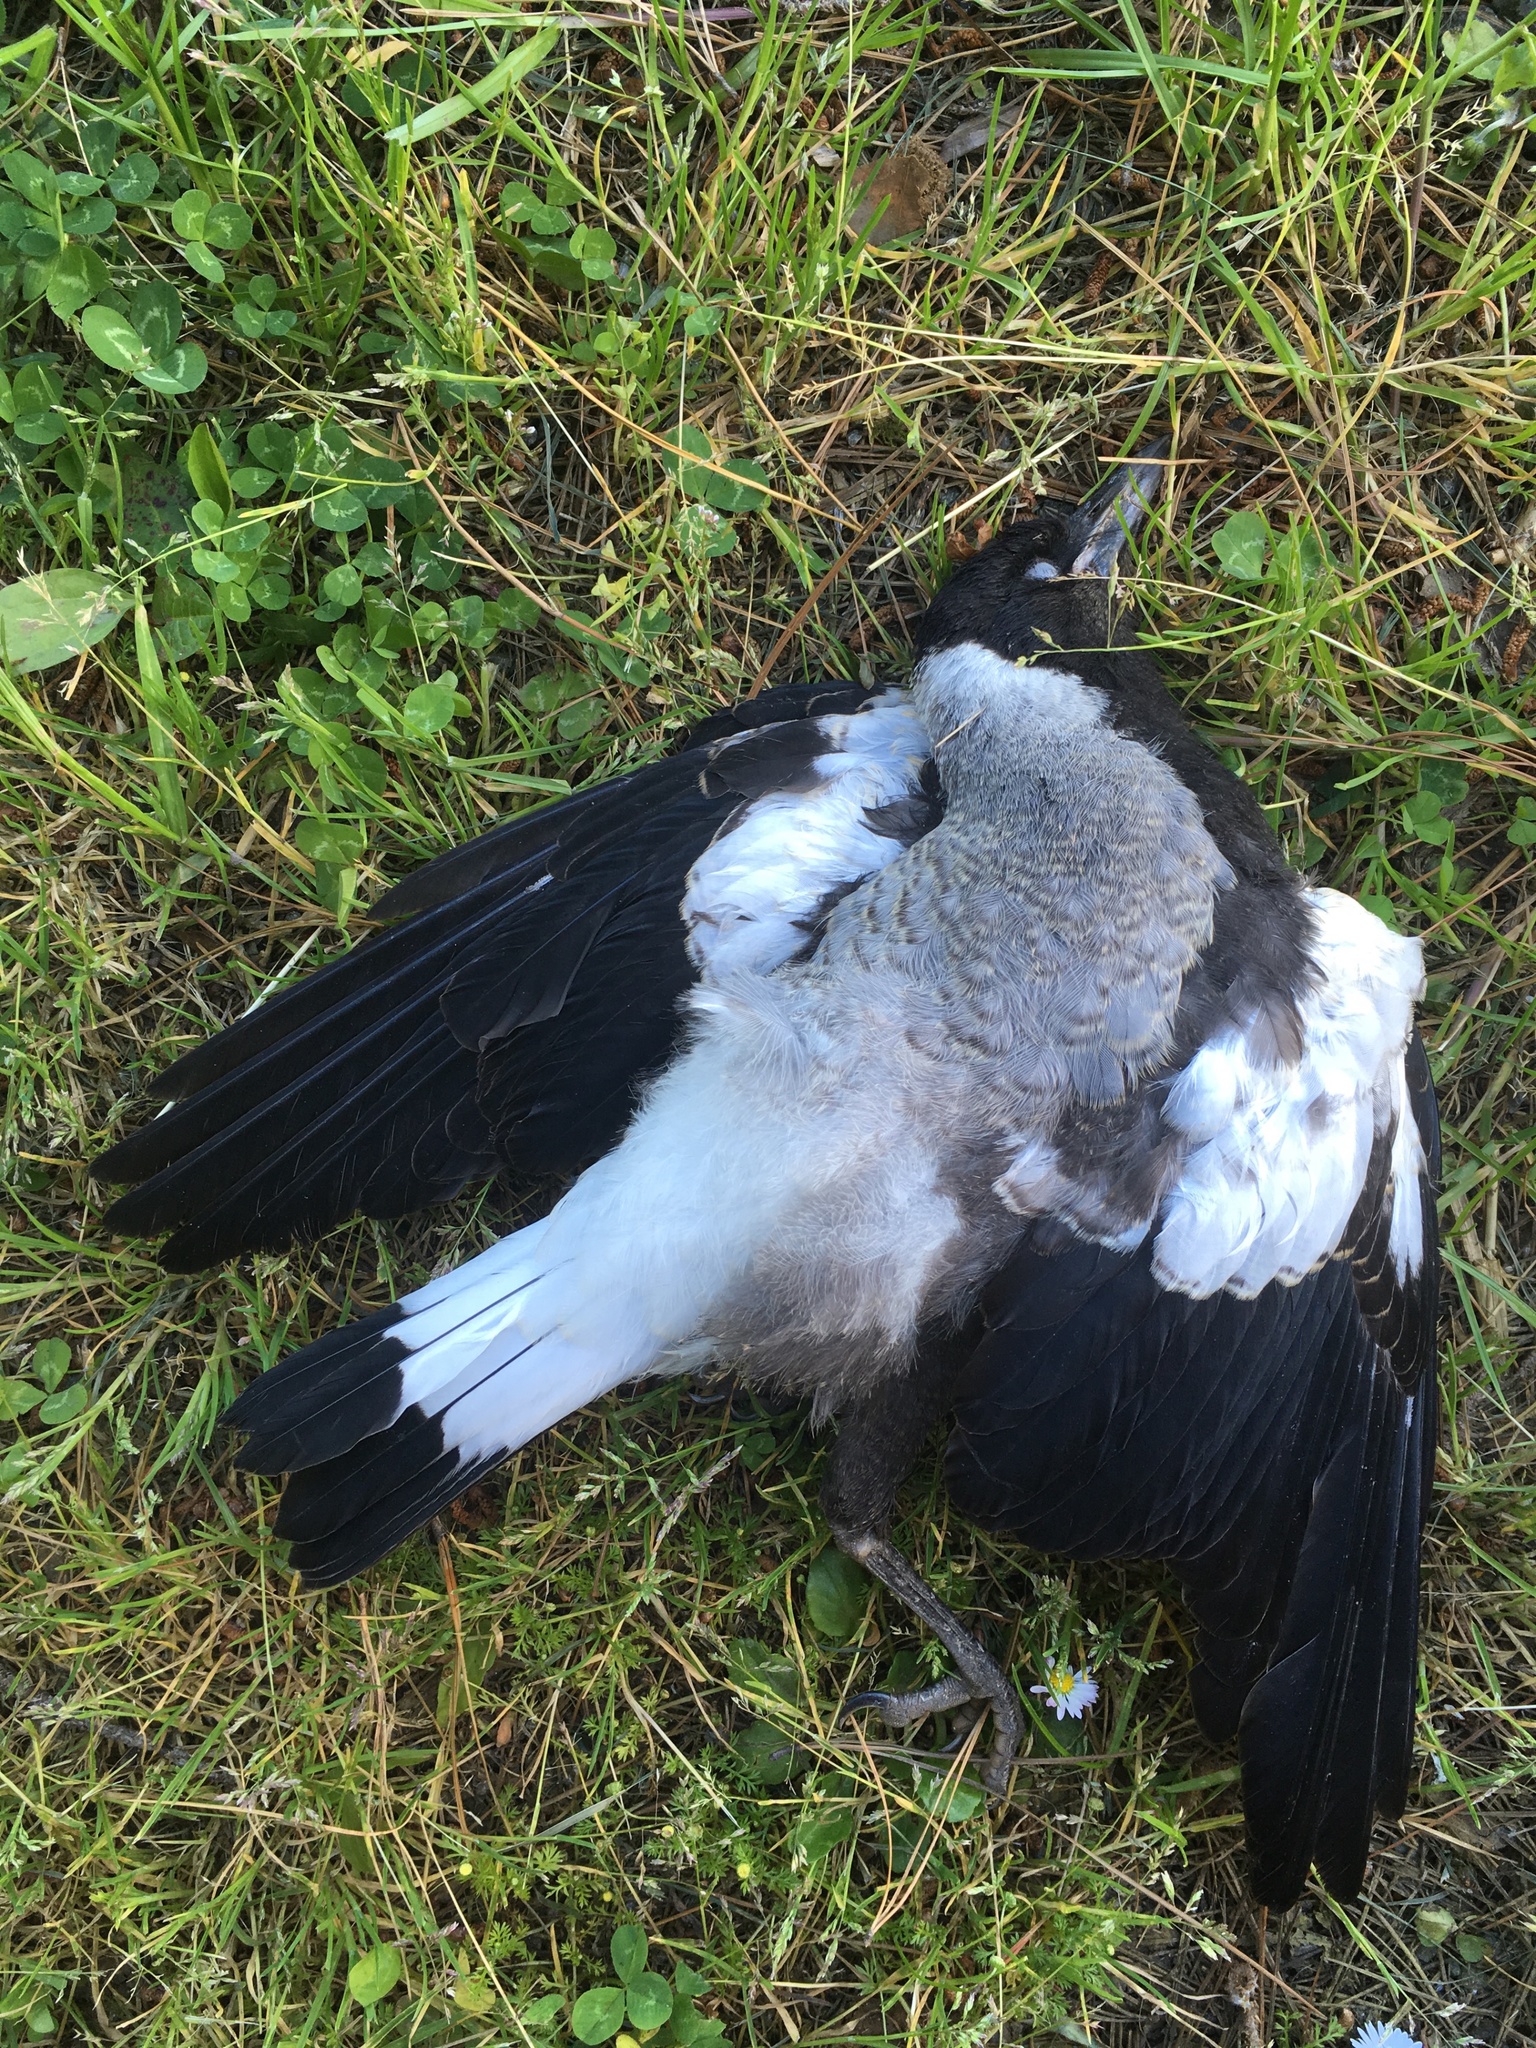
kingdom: Animalia
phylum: Chordata
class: Aves
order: Passeriformes
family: Cracticidae
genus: Gymnorhina
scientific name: Gymnorhina tibicen
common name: Australian magpie
